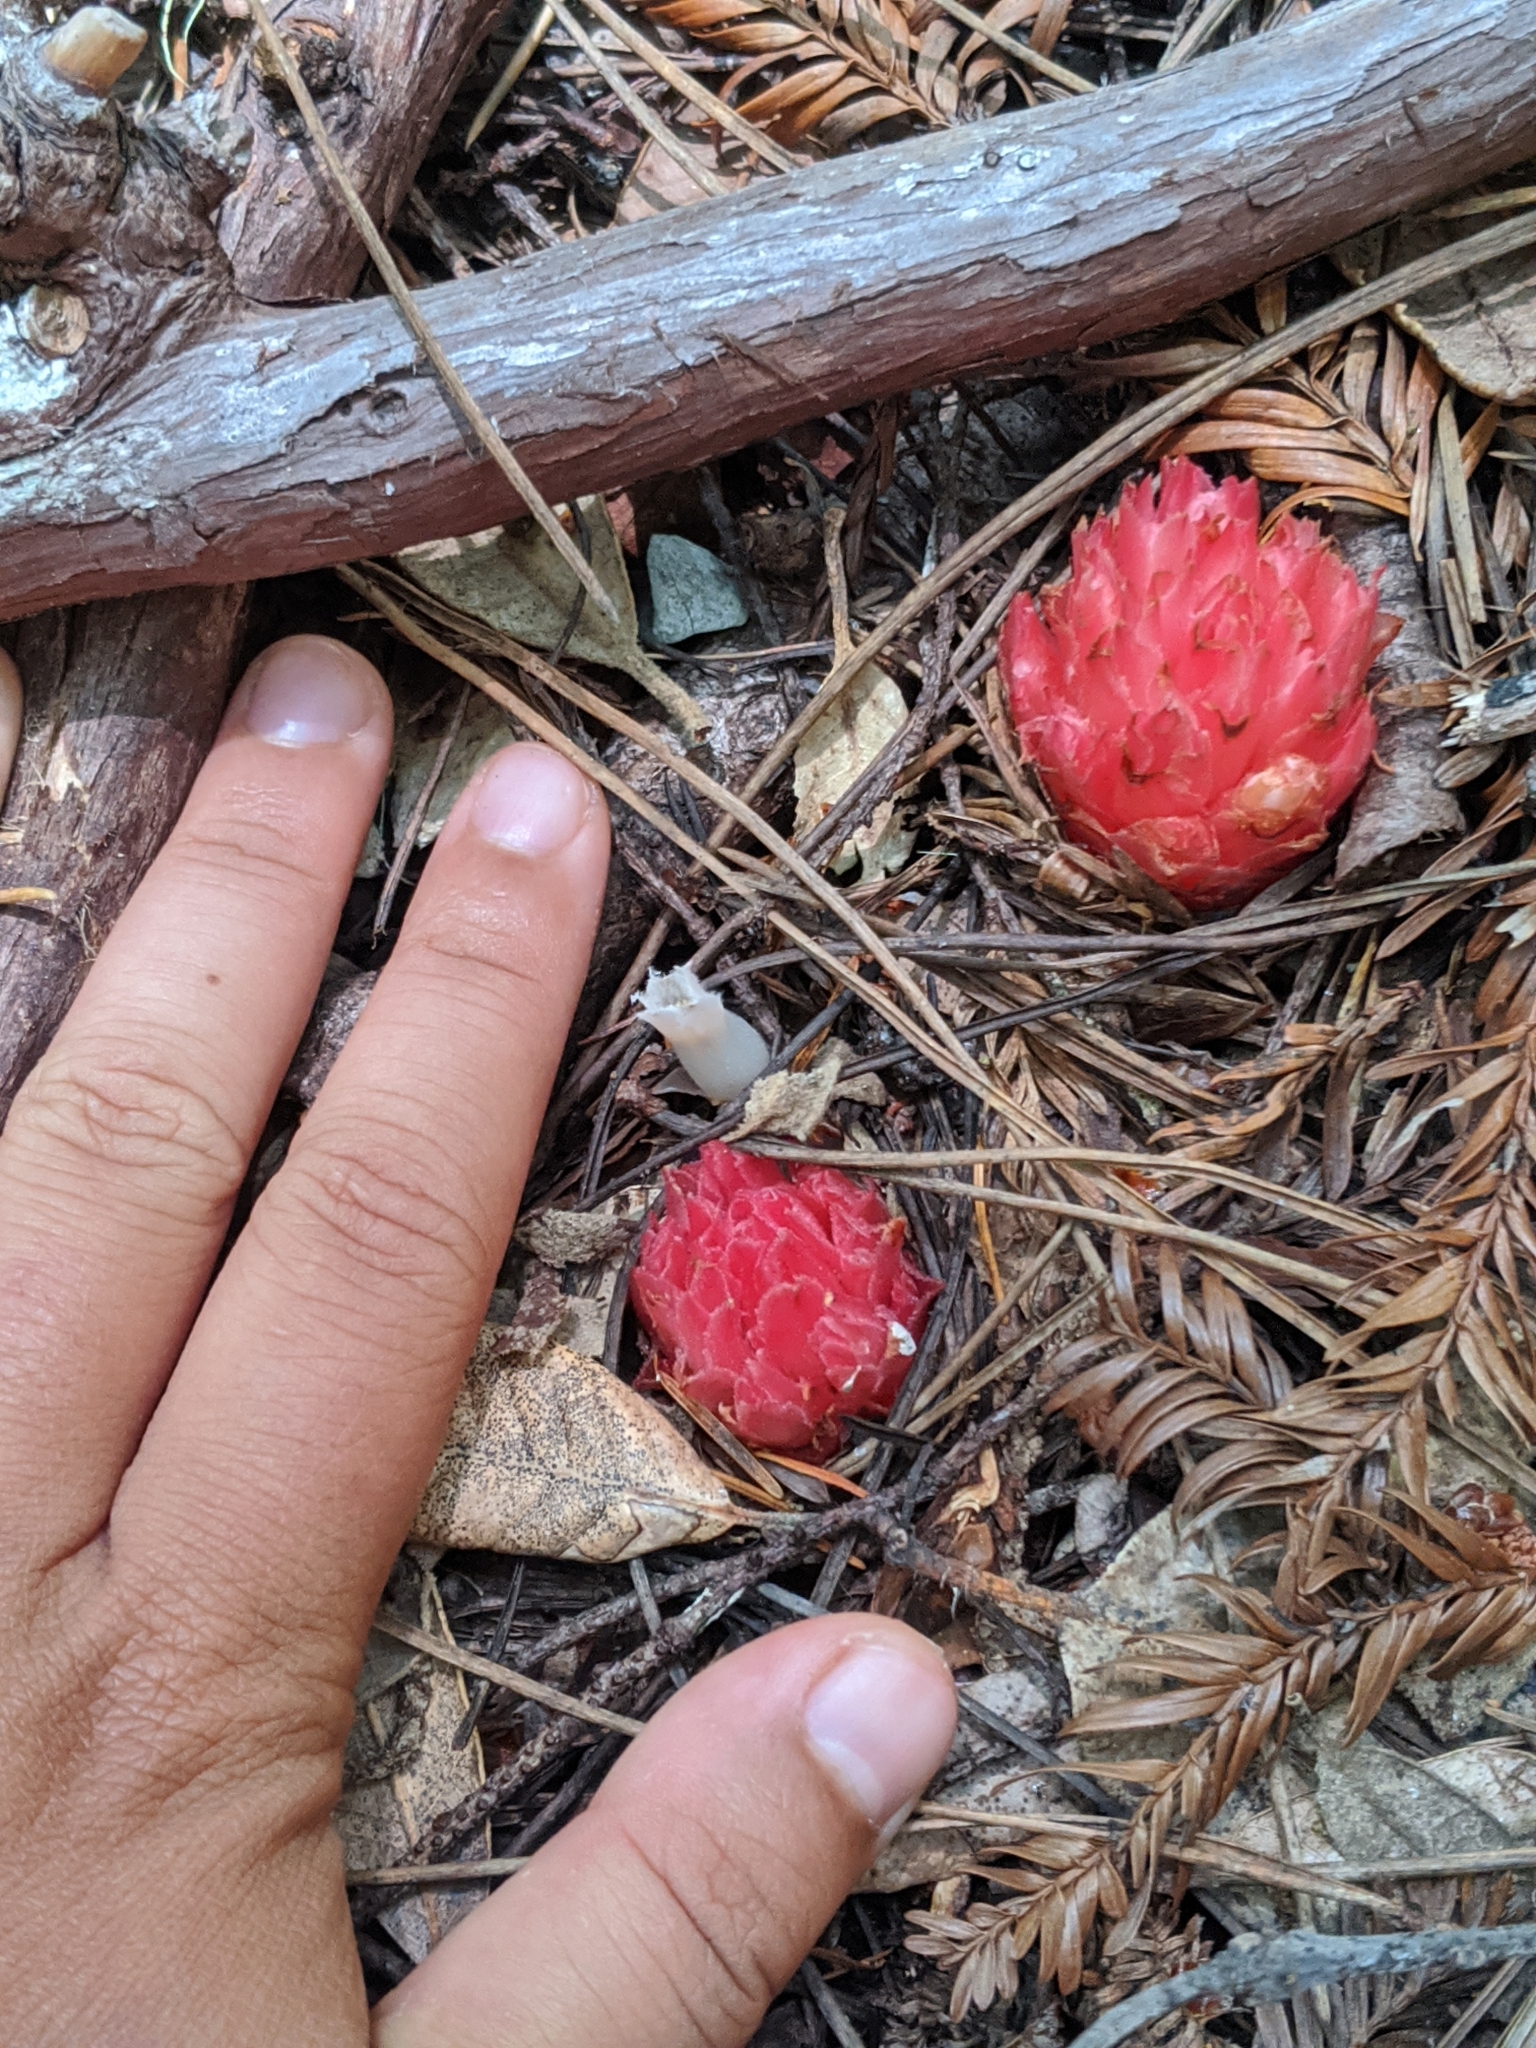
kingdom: Plantae
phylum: Tracheophyta
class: Magnoliopsida
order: Ericales
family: Ericaceae
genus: Hemitomes
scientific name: Hemitomes congestum
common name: Cone plant
